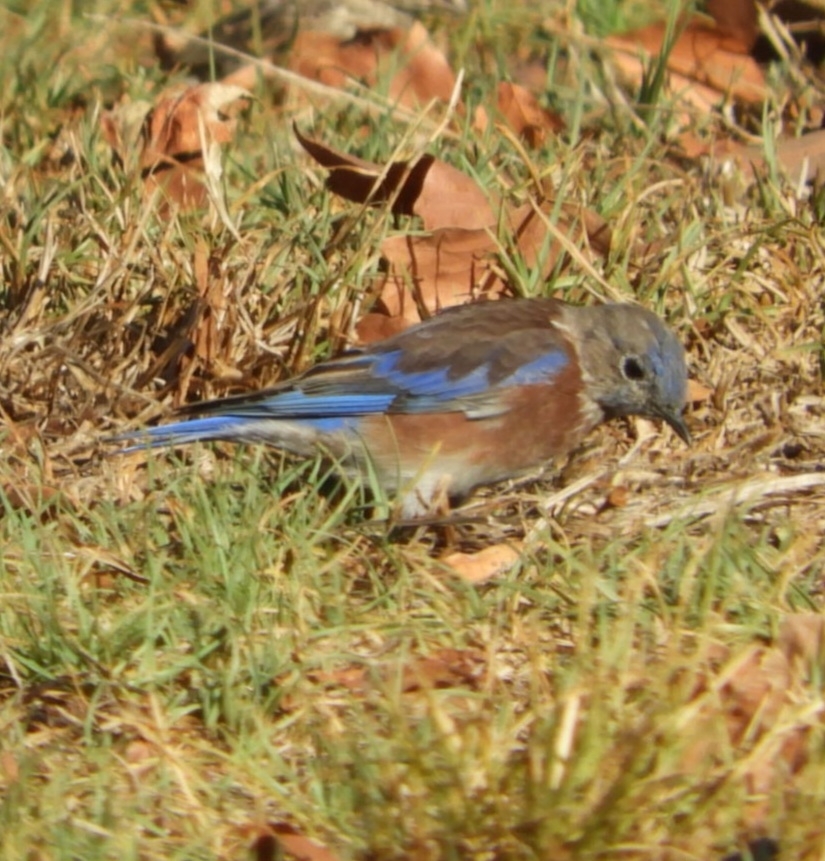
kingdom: Animalia
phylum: Chordata
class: Aves
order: Passeriformes
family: Turdidae
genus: Sialia
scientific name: Sialia mexicana
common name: Western bluebird
